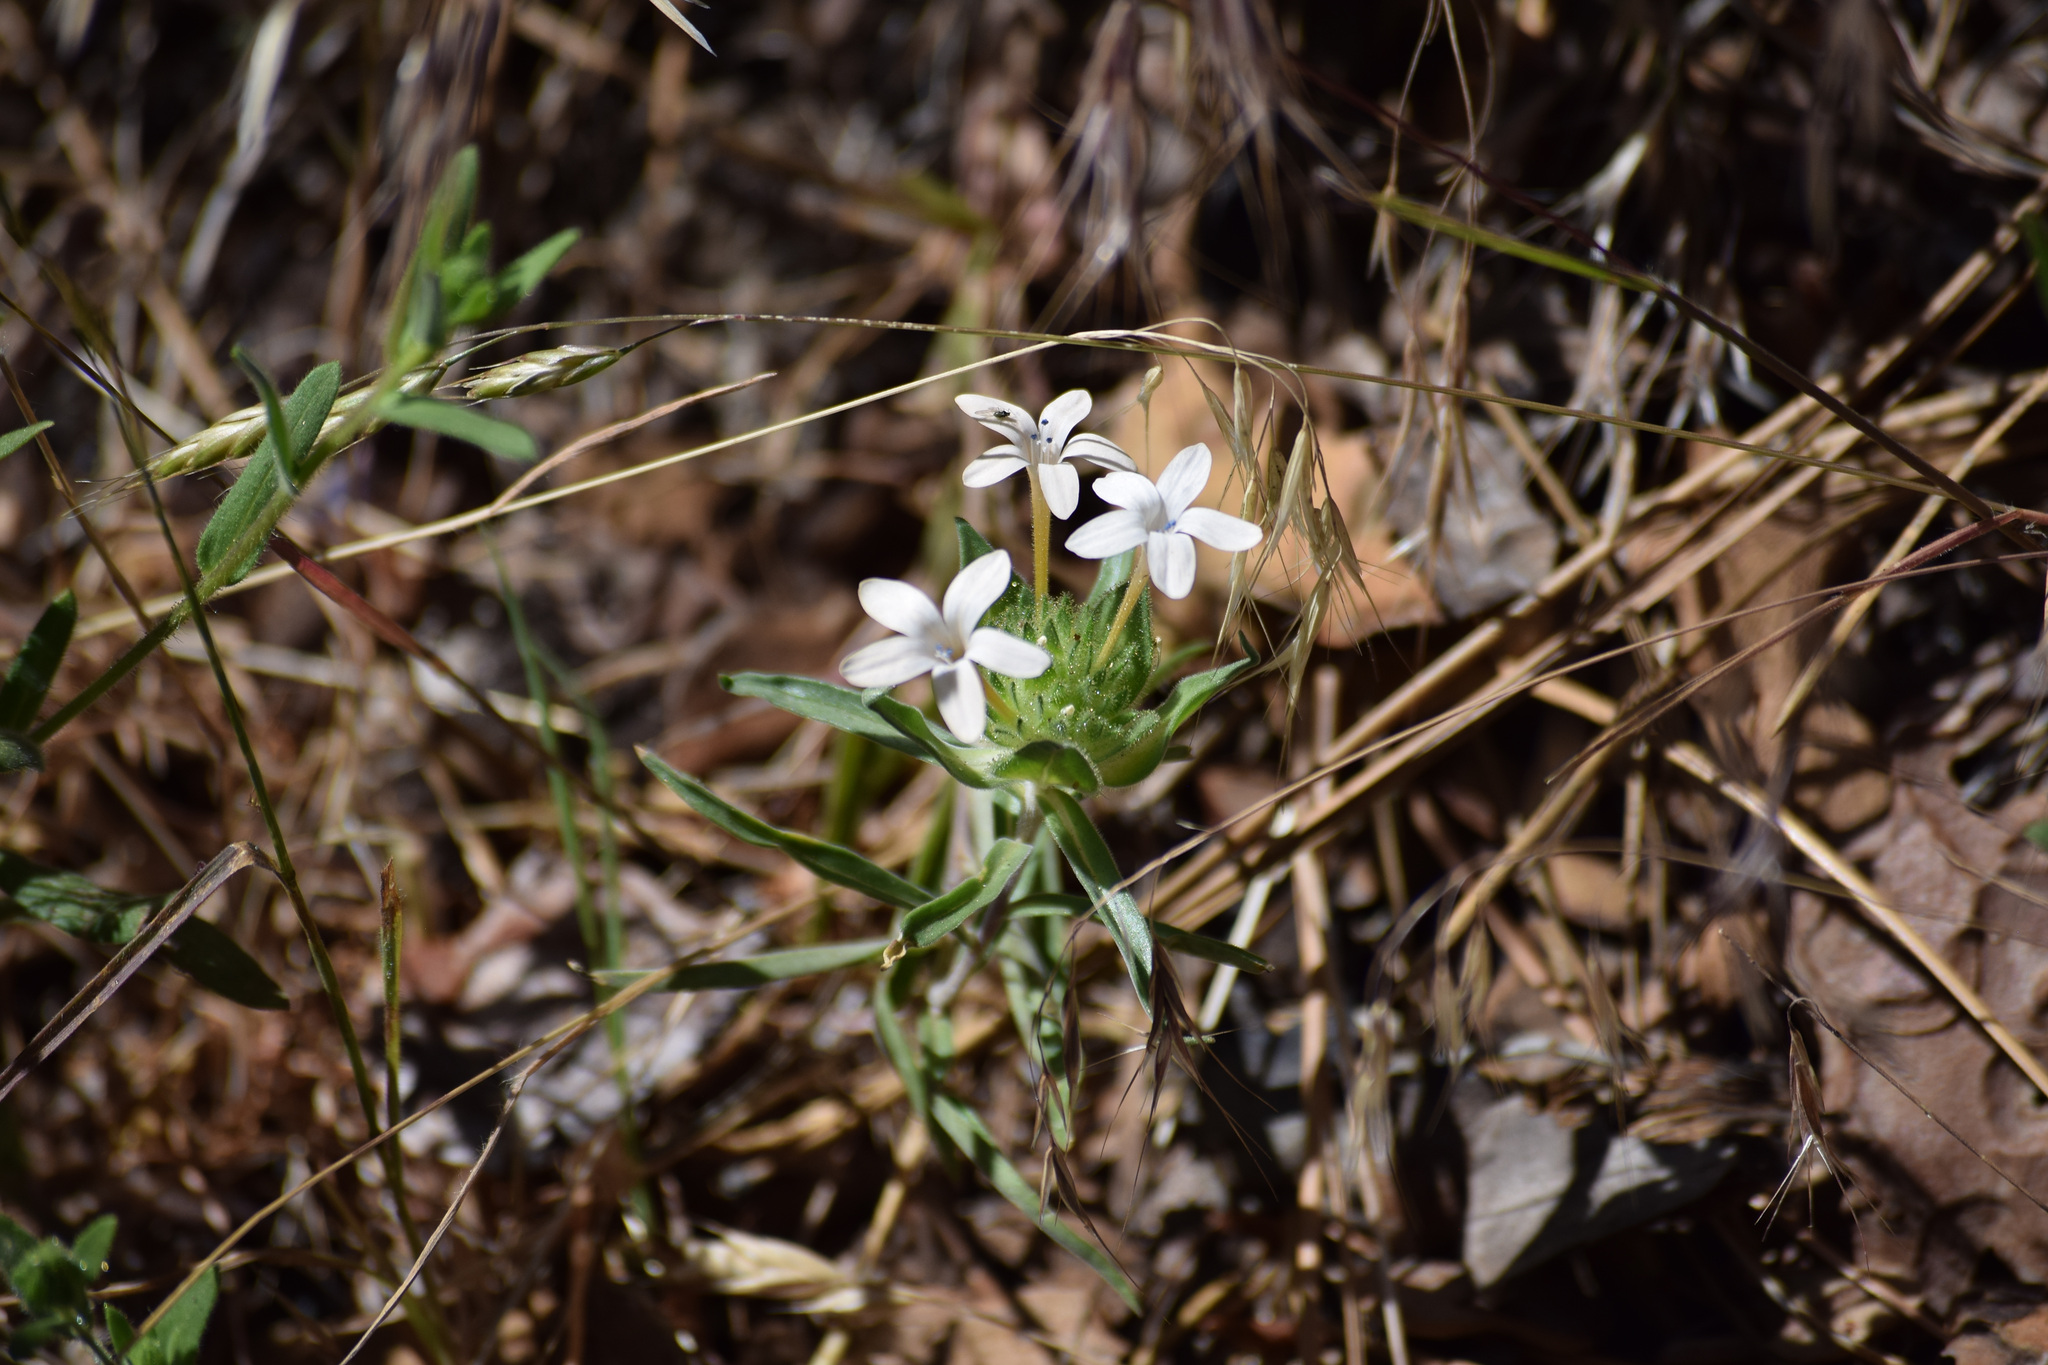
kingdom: Plantae
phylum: Tracheophyta
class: Magnoliopsida
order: Ericales
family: Polemoniaceae
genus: Collomia
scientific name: Collomia grandiflora
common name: California strawflower
